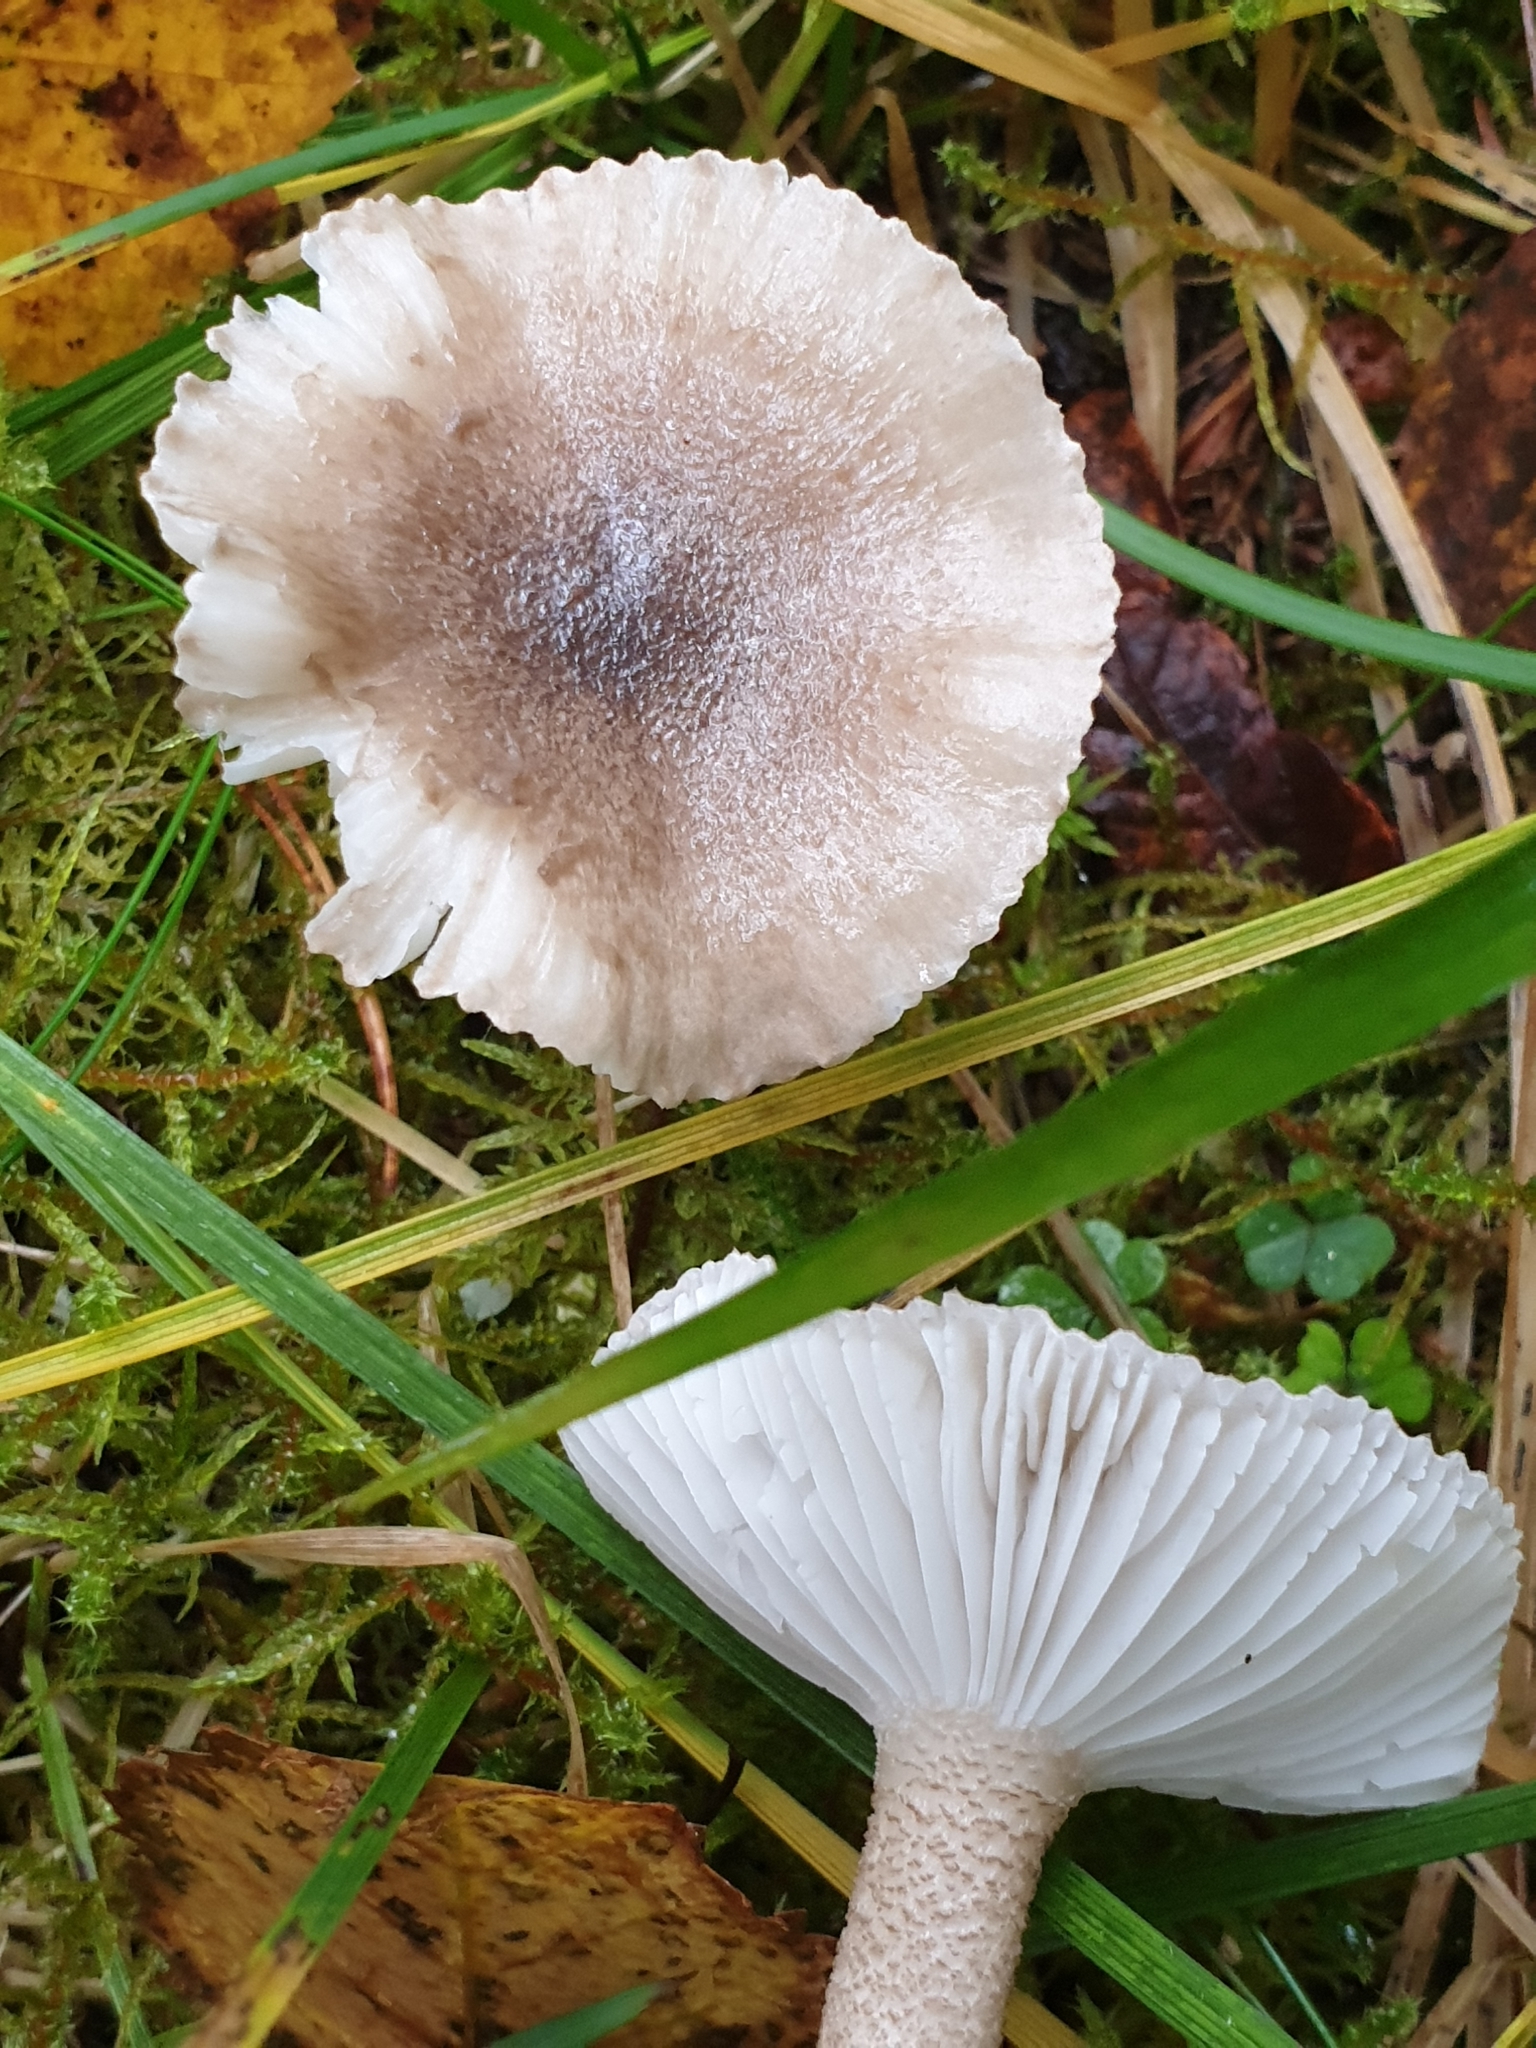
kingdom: Fungi
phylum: Basidiomycota
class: Agaricomycetes
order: Agaricales
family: Hygrophoraceae
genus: Hygrophorus
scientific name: Hygrophorus pustulatus
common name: Blistered woodwax
